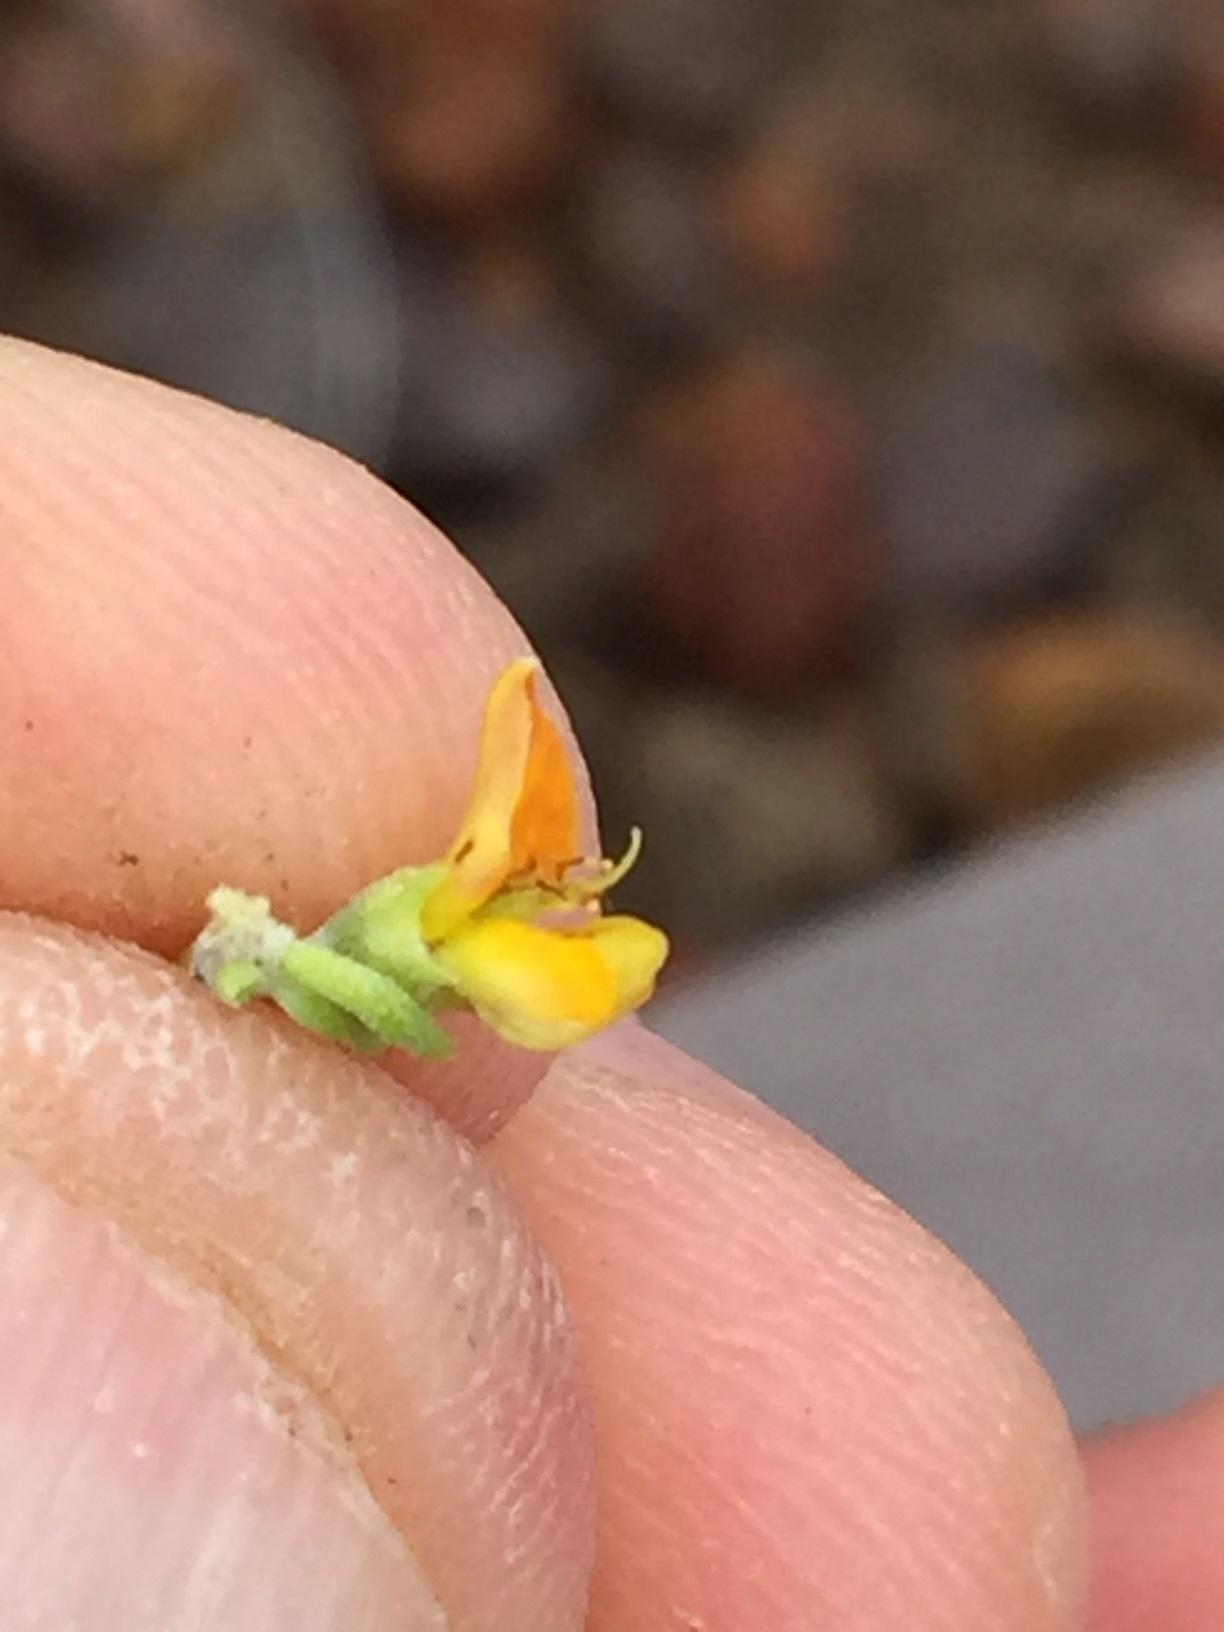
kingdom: Plantae
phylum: Tracheophyta
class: Magnoliopsida
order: Fabales
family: Fabaceae
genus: Aspalathus
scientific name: Aspalathus tuberculata
